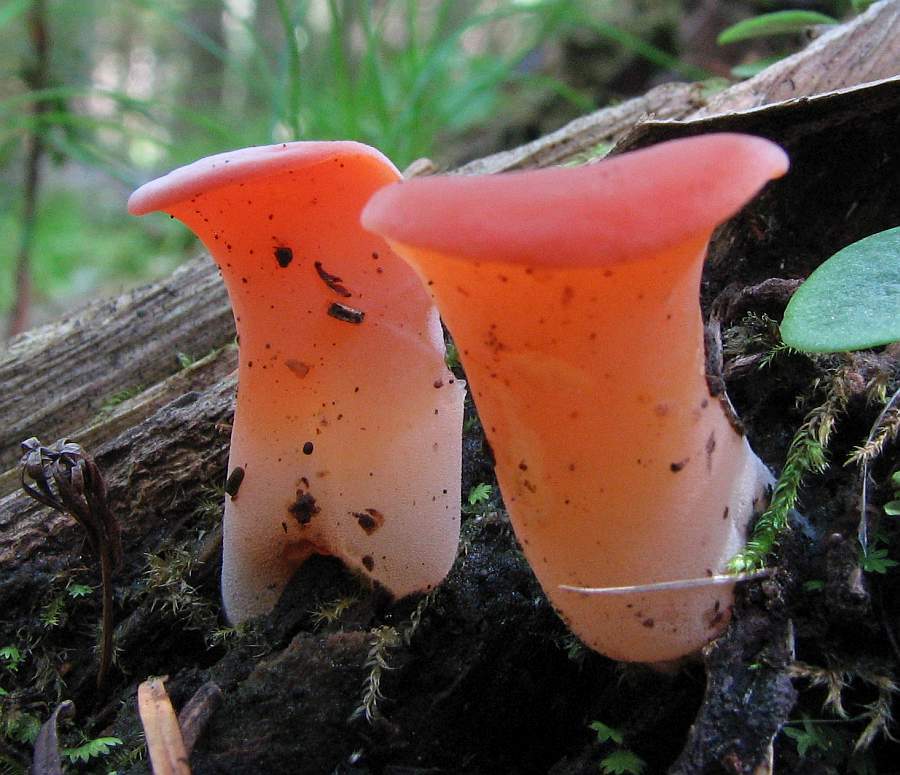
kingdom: Fungi
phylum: Basidiomycota
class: Agaricomycetes
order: Auriculariales
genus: Guepinia
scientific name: Guepinia helvelloides
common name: Salmon salad
